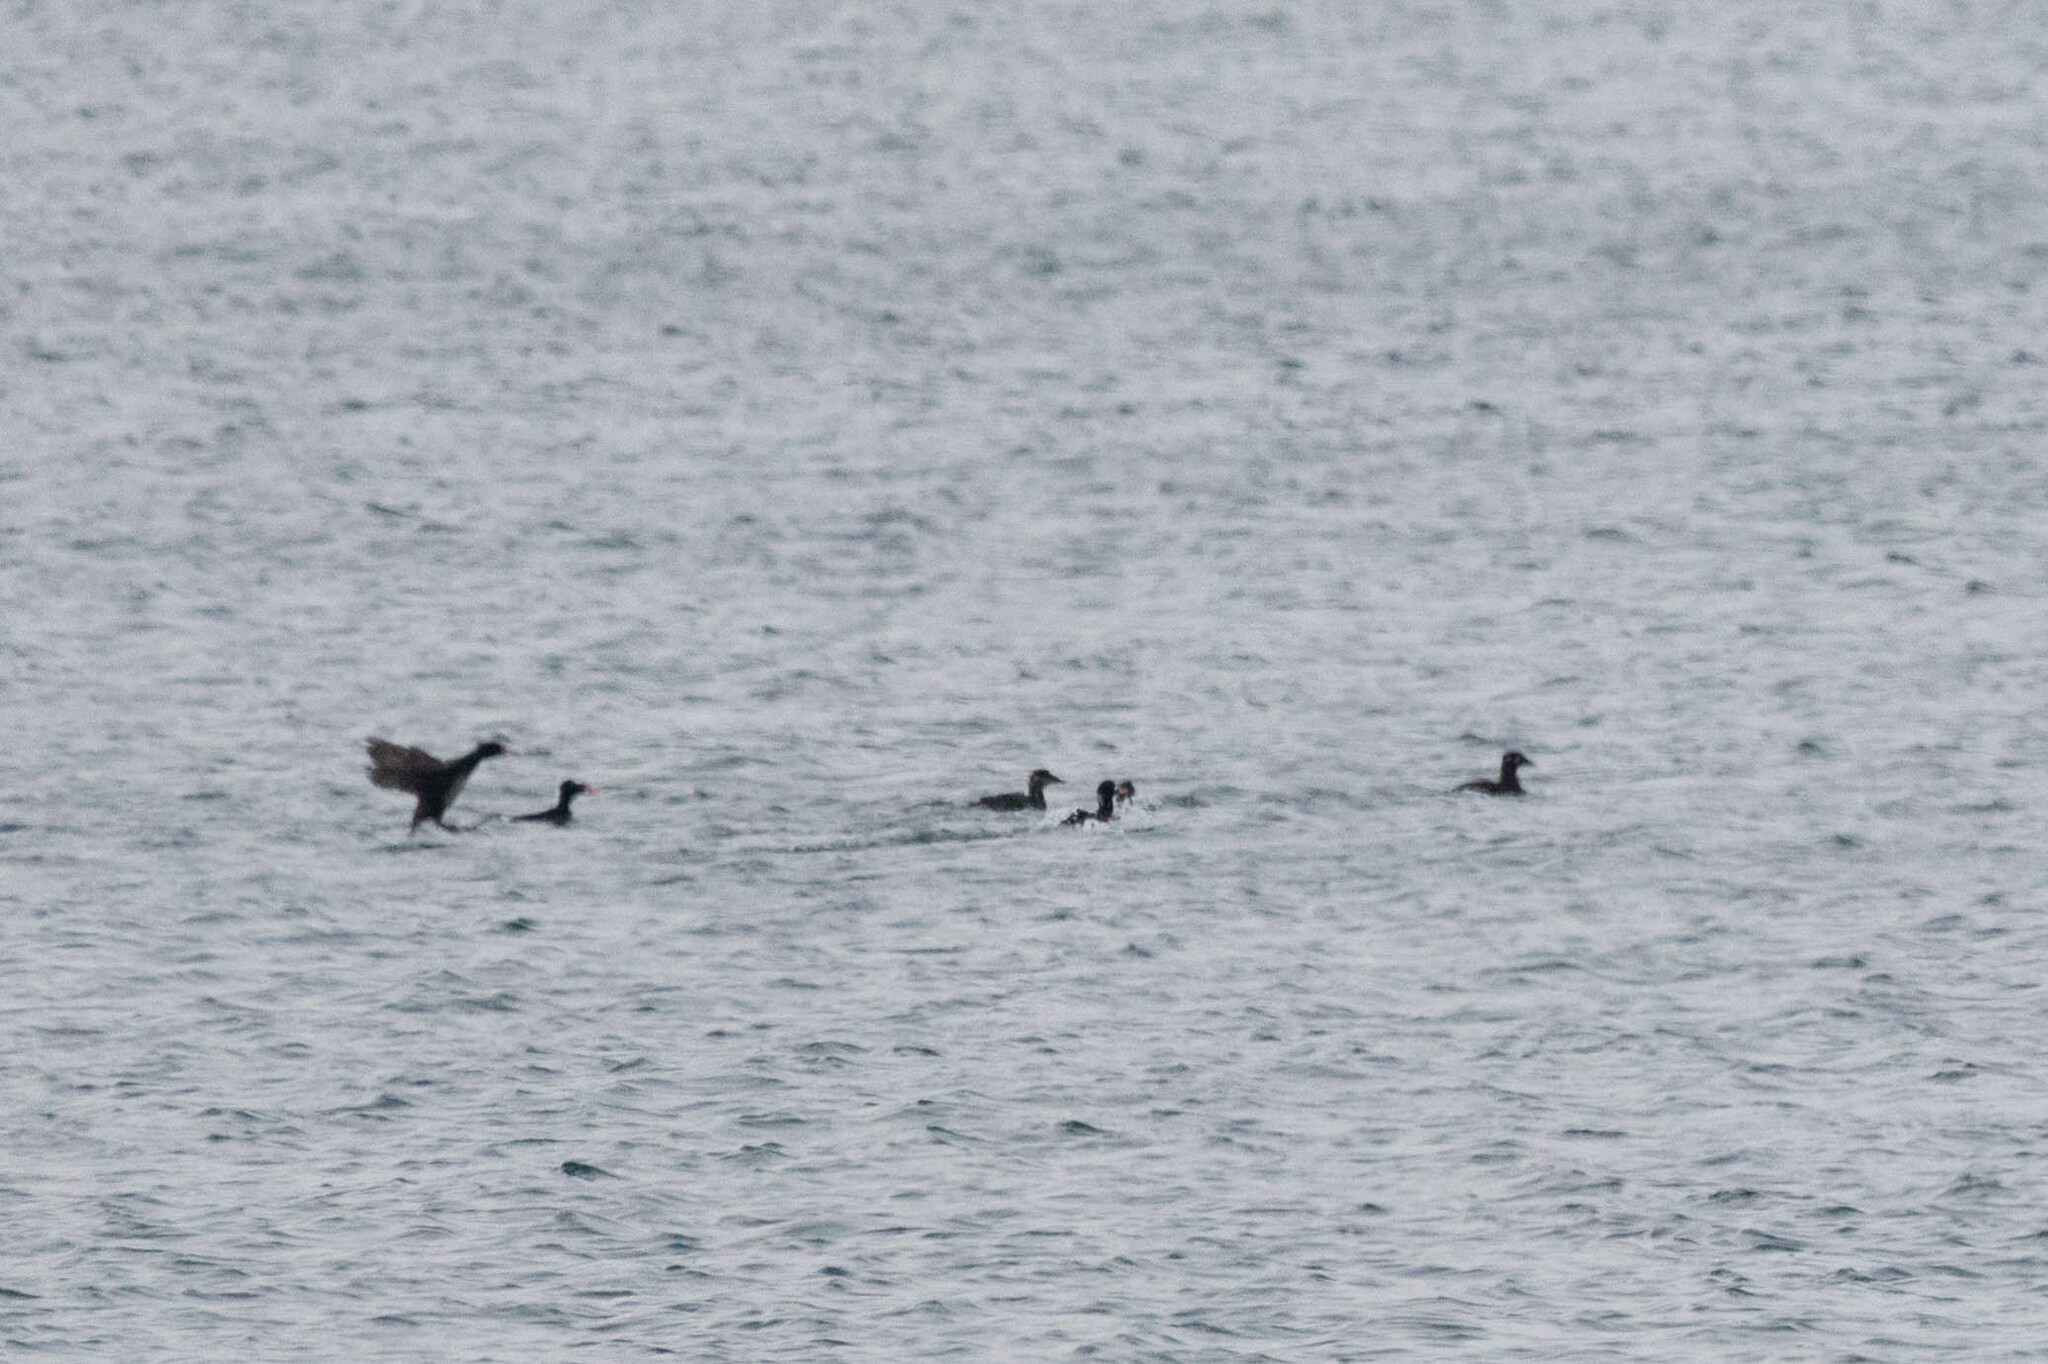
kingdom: Animalia
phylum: Chordata
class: Aves
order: Anseriformes
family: Anatidae
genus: Melanitta
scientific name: Melanitta perspicillata
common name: Surf scoter
